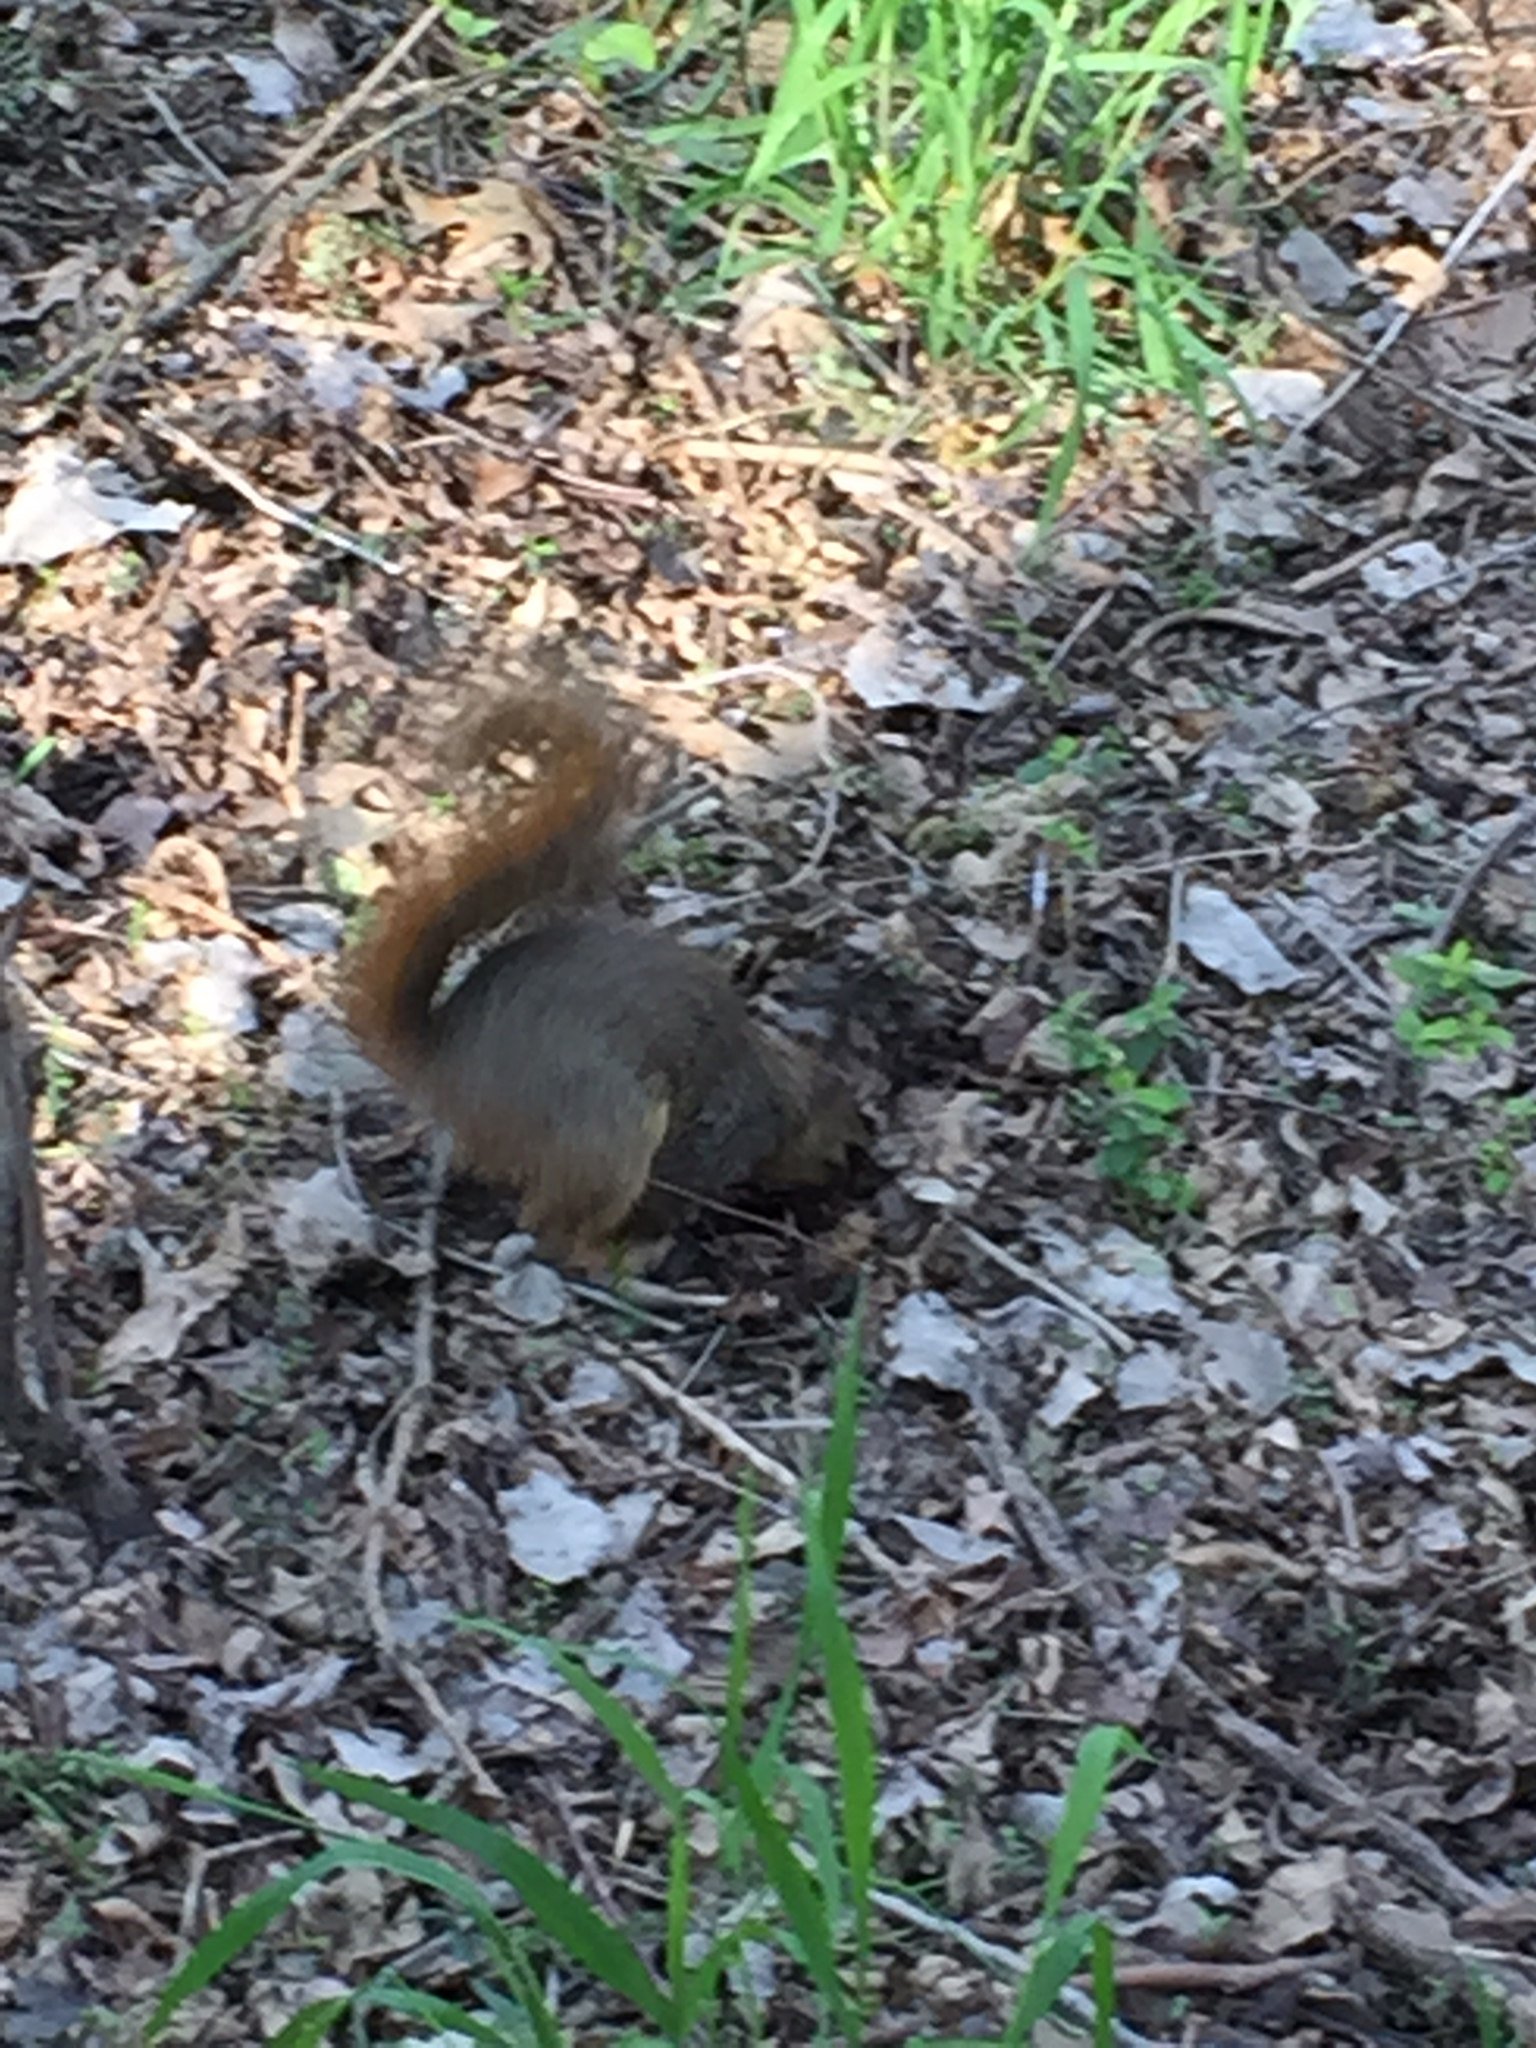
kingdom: Animalia
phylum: Chordata
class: Mammalia
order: Rodentia
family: Sciuridae
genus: Sciurus
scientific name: Sciurus niger
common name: Fox squirrel
